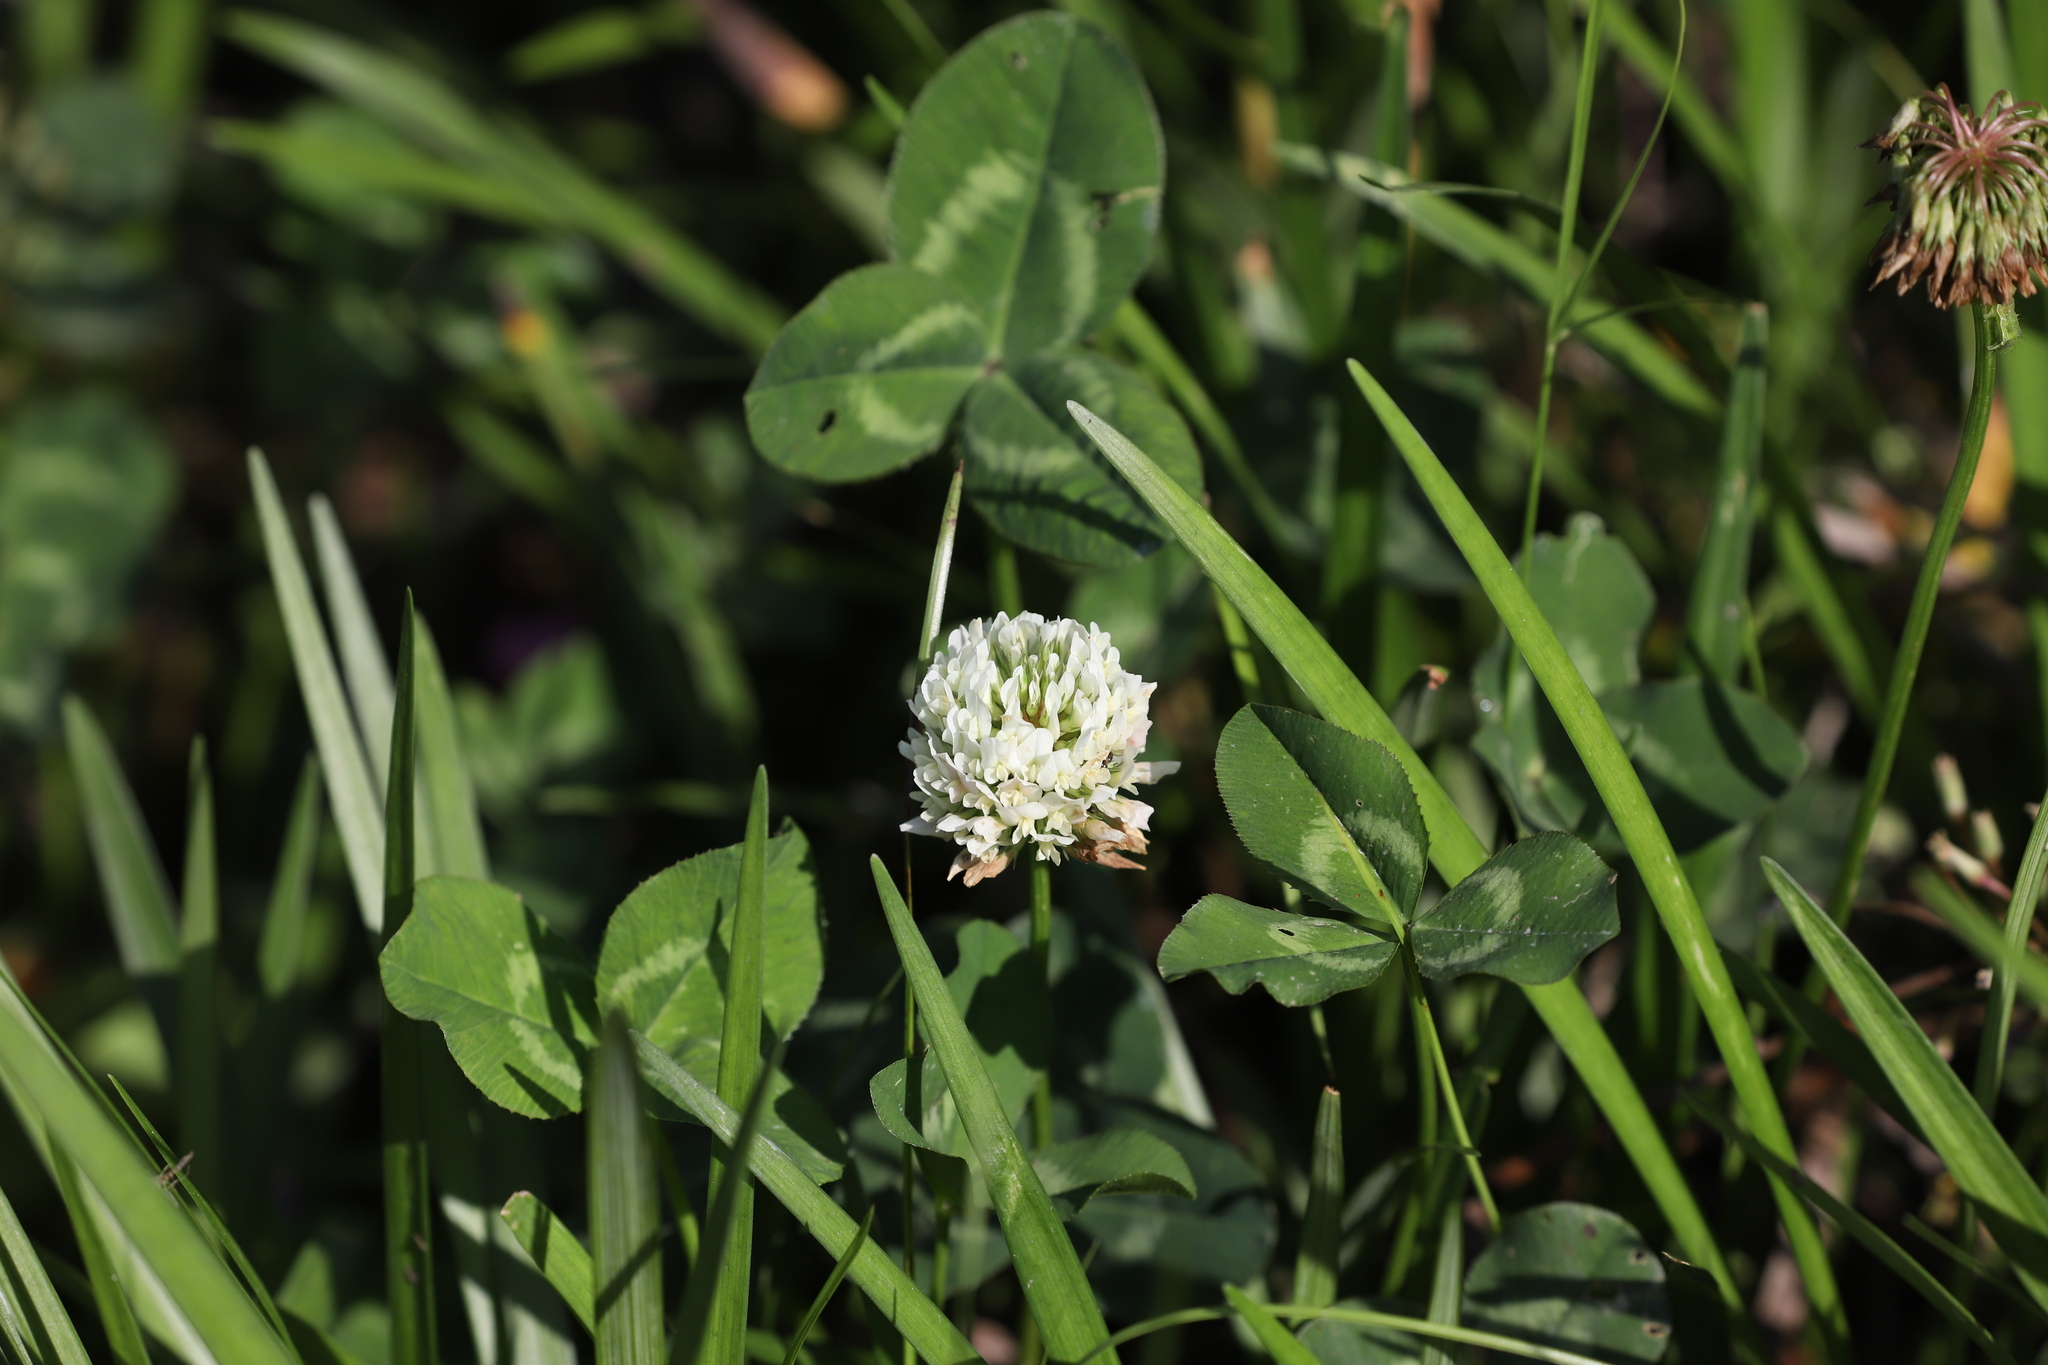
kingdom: Plantae
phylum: Tracheophyta
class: Magnoliopsida
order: Fabales
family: Fabaceae
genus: Trifolium
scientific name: Trifolium repens
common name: White clover
